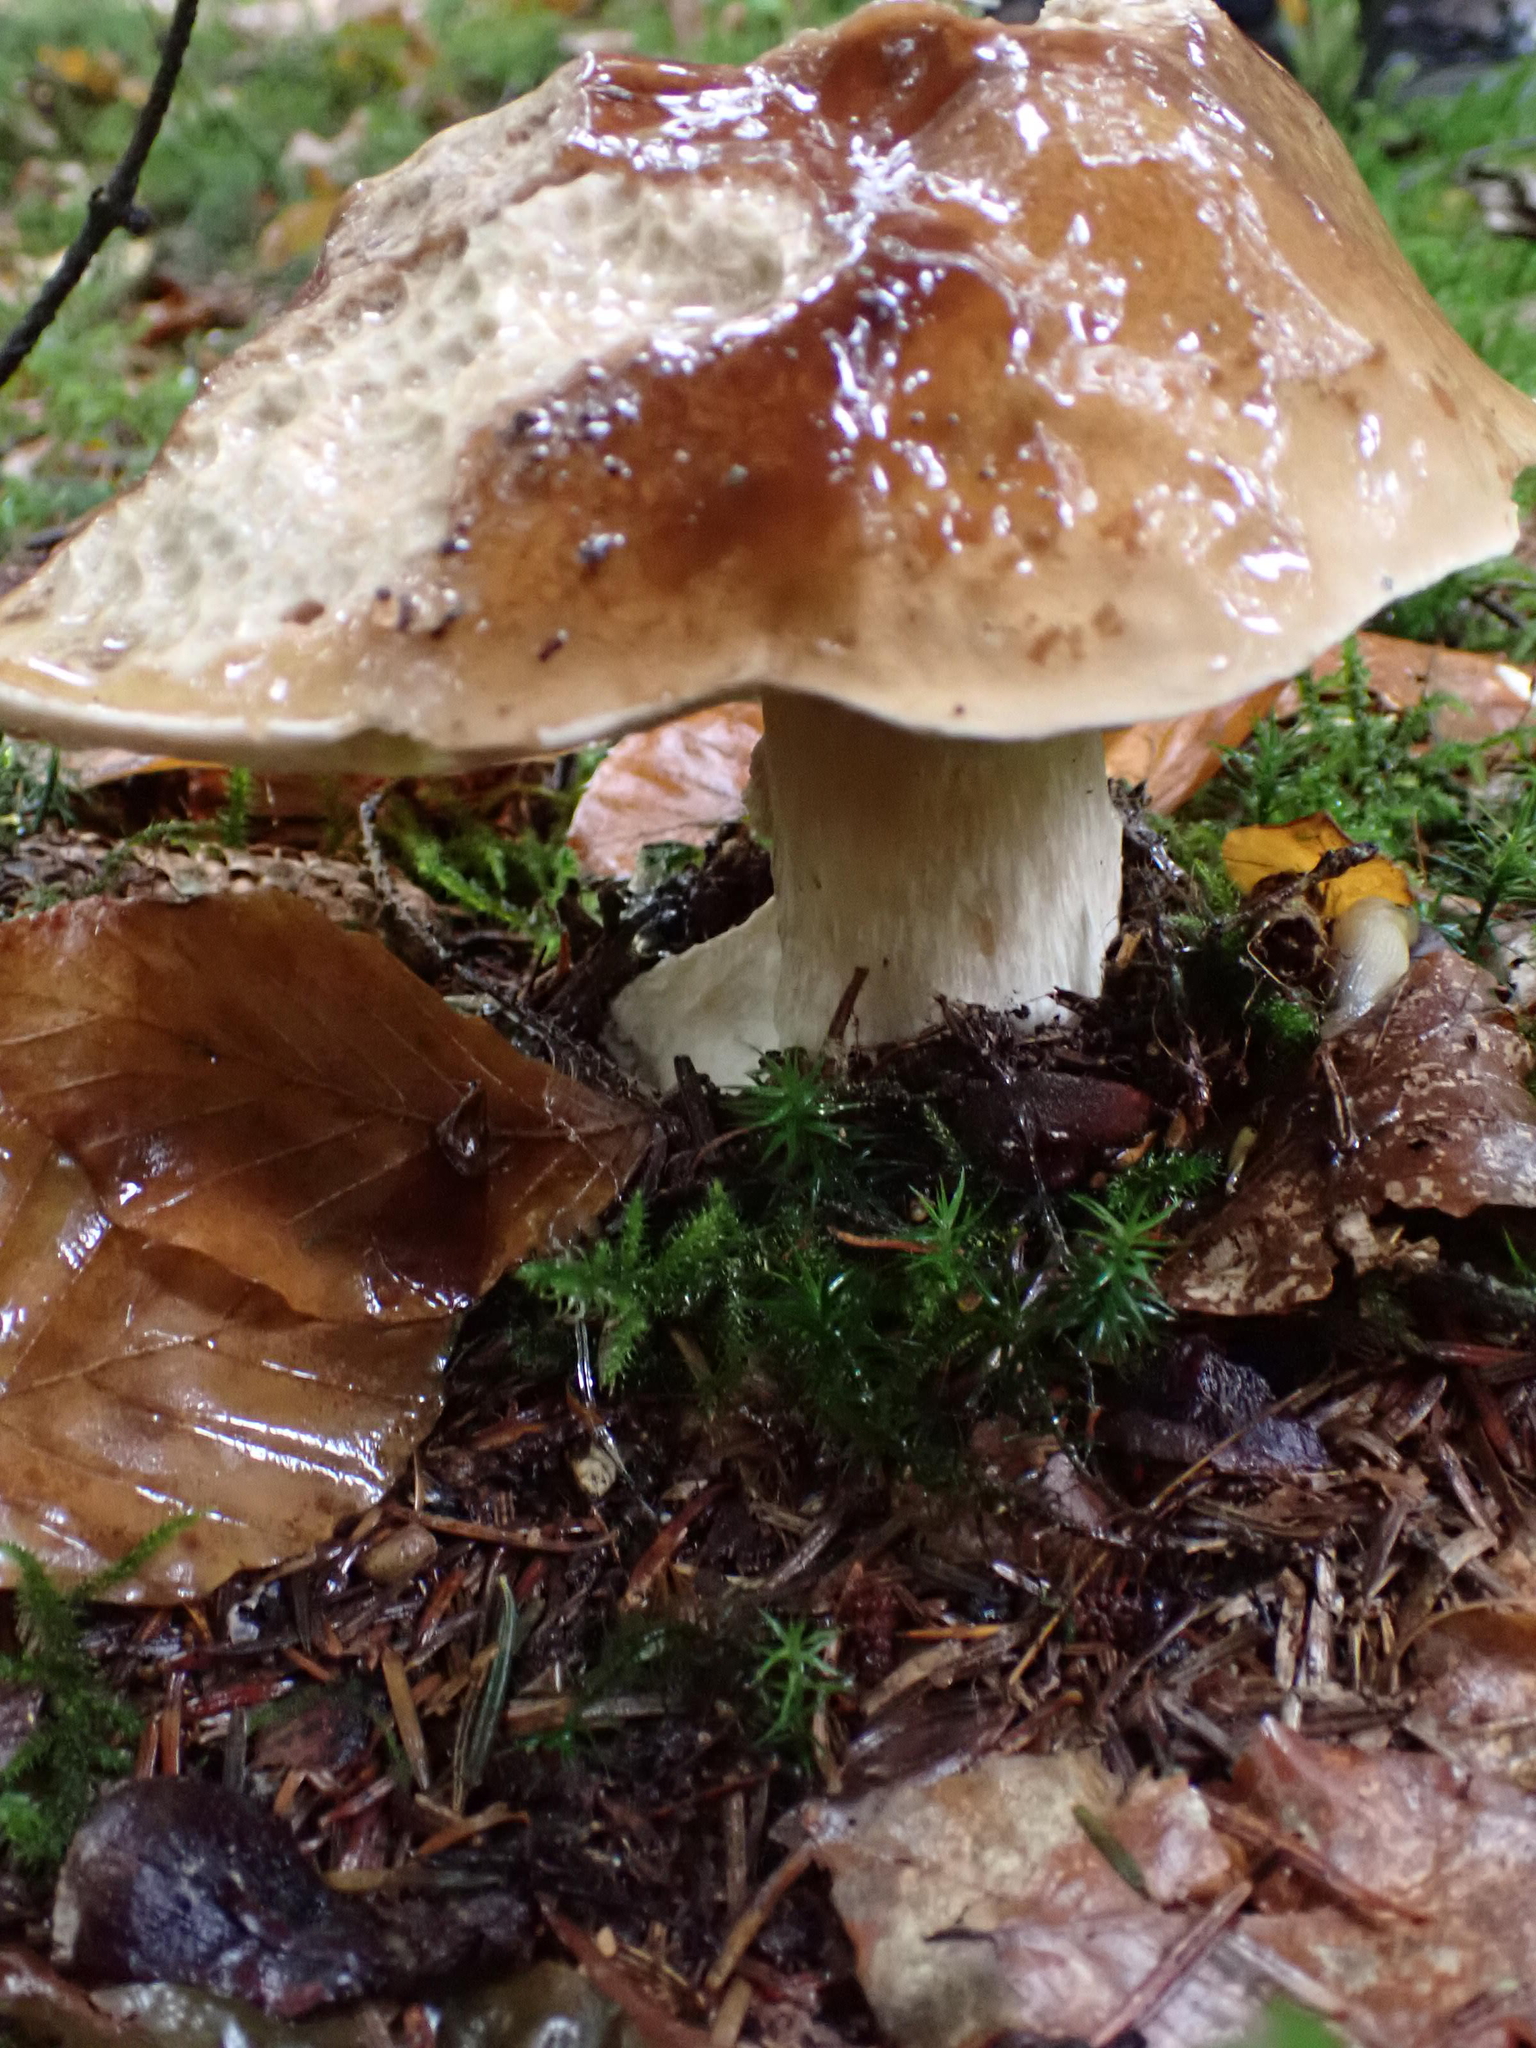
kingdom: Fungi
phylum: Basidiomycota
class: Agaricomycetes
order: Boletales
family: Boletaceae
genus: Boletus
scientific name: Boletus edulis
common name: Cep
